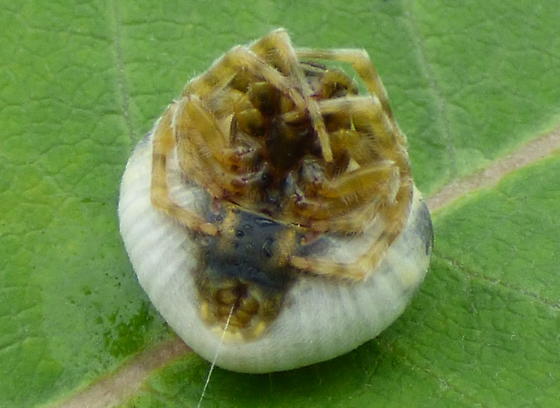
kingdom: Animalia
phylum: Arthropoda
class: Arachnida
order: Araneae
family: Araneidae
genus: Mastophora
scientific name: Mastophora hutchinsoni
